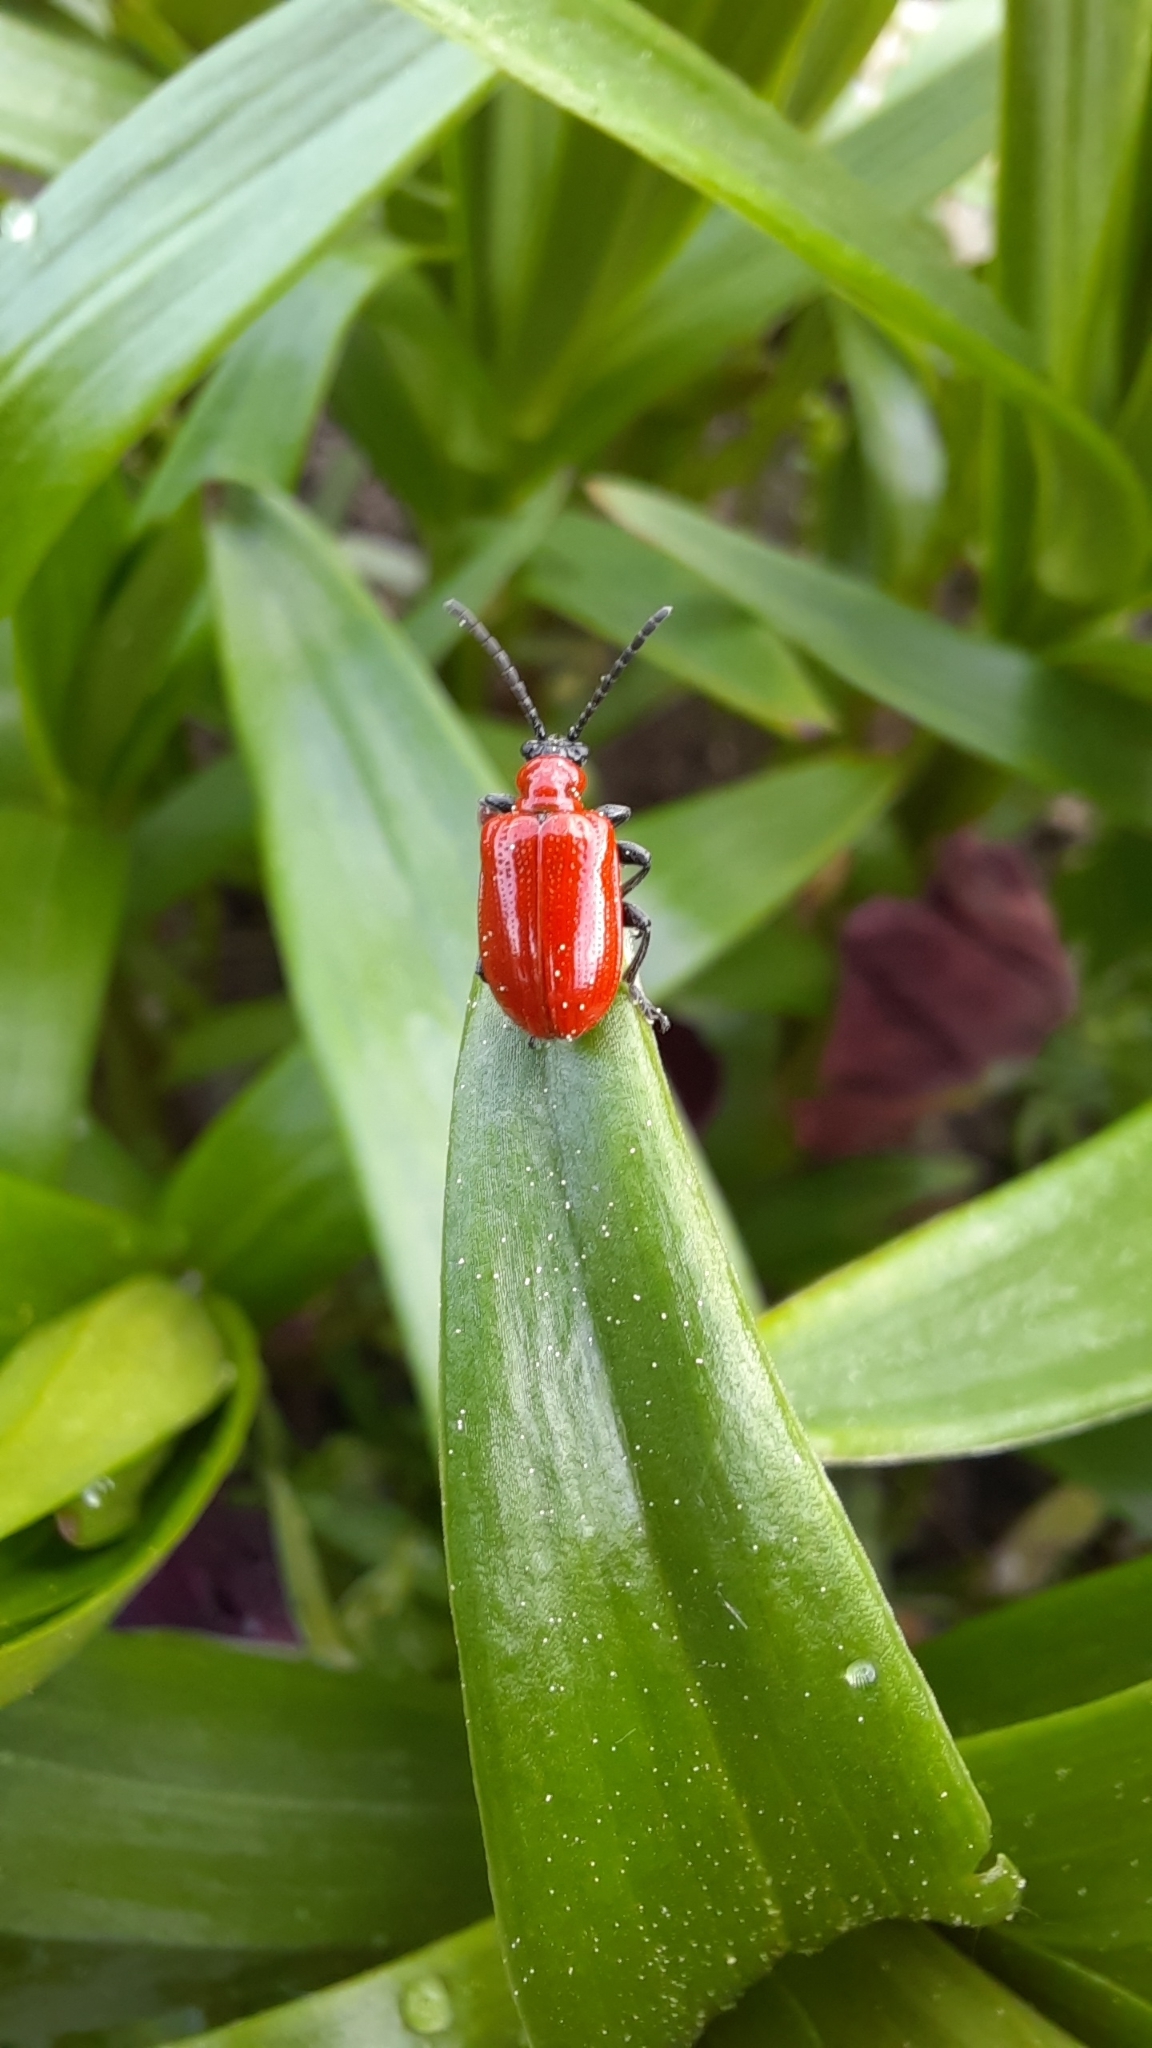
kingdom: Animalia
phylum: Arthropoda
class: Insecta
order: Coleoptera
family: Chrysomelidae
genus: Lilioceris
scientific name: Lilioceris lilii
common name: Lily beetle
